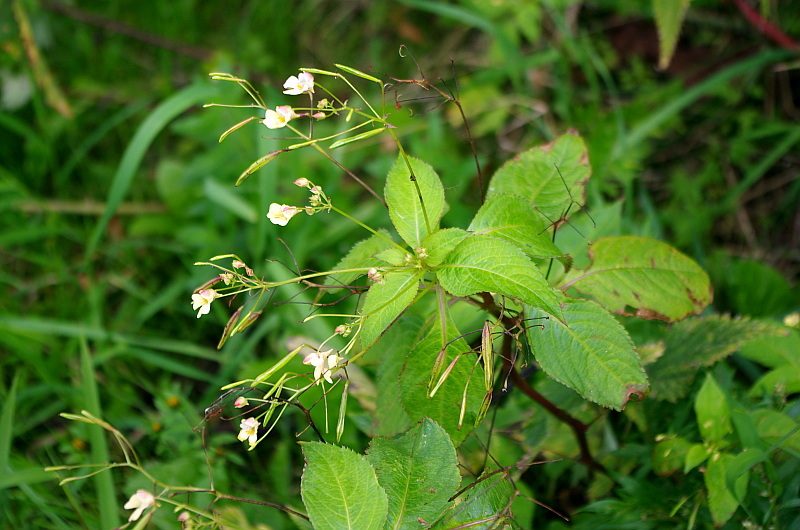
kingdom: Plantae
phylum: Tracheophyta
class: Magnoliopsida
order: Ericales
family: Balsaminaceae
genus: Impatiens
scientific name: Impatiens parviflora
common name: Small balsam
